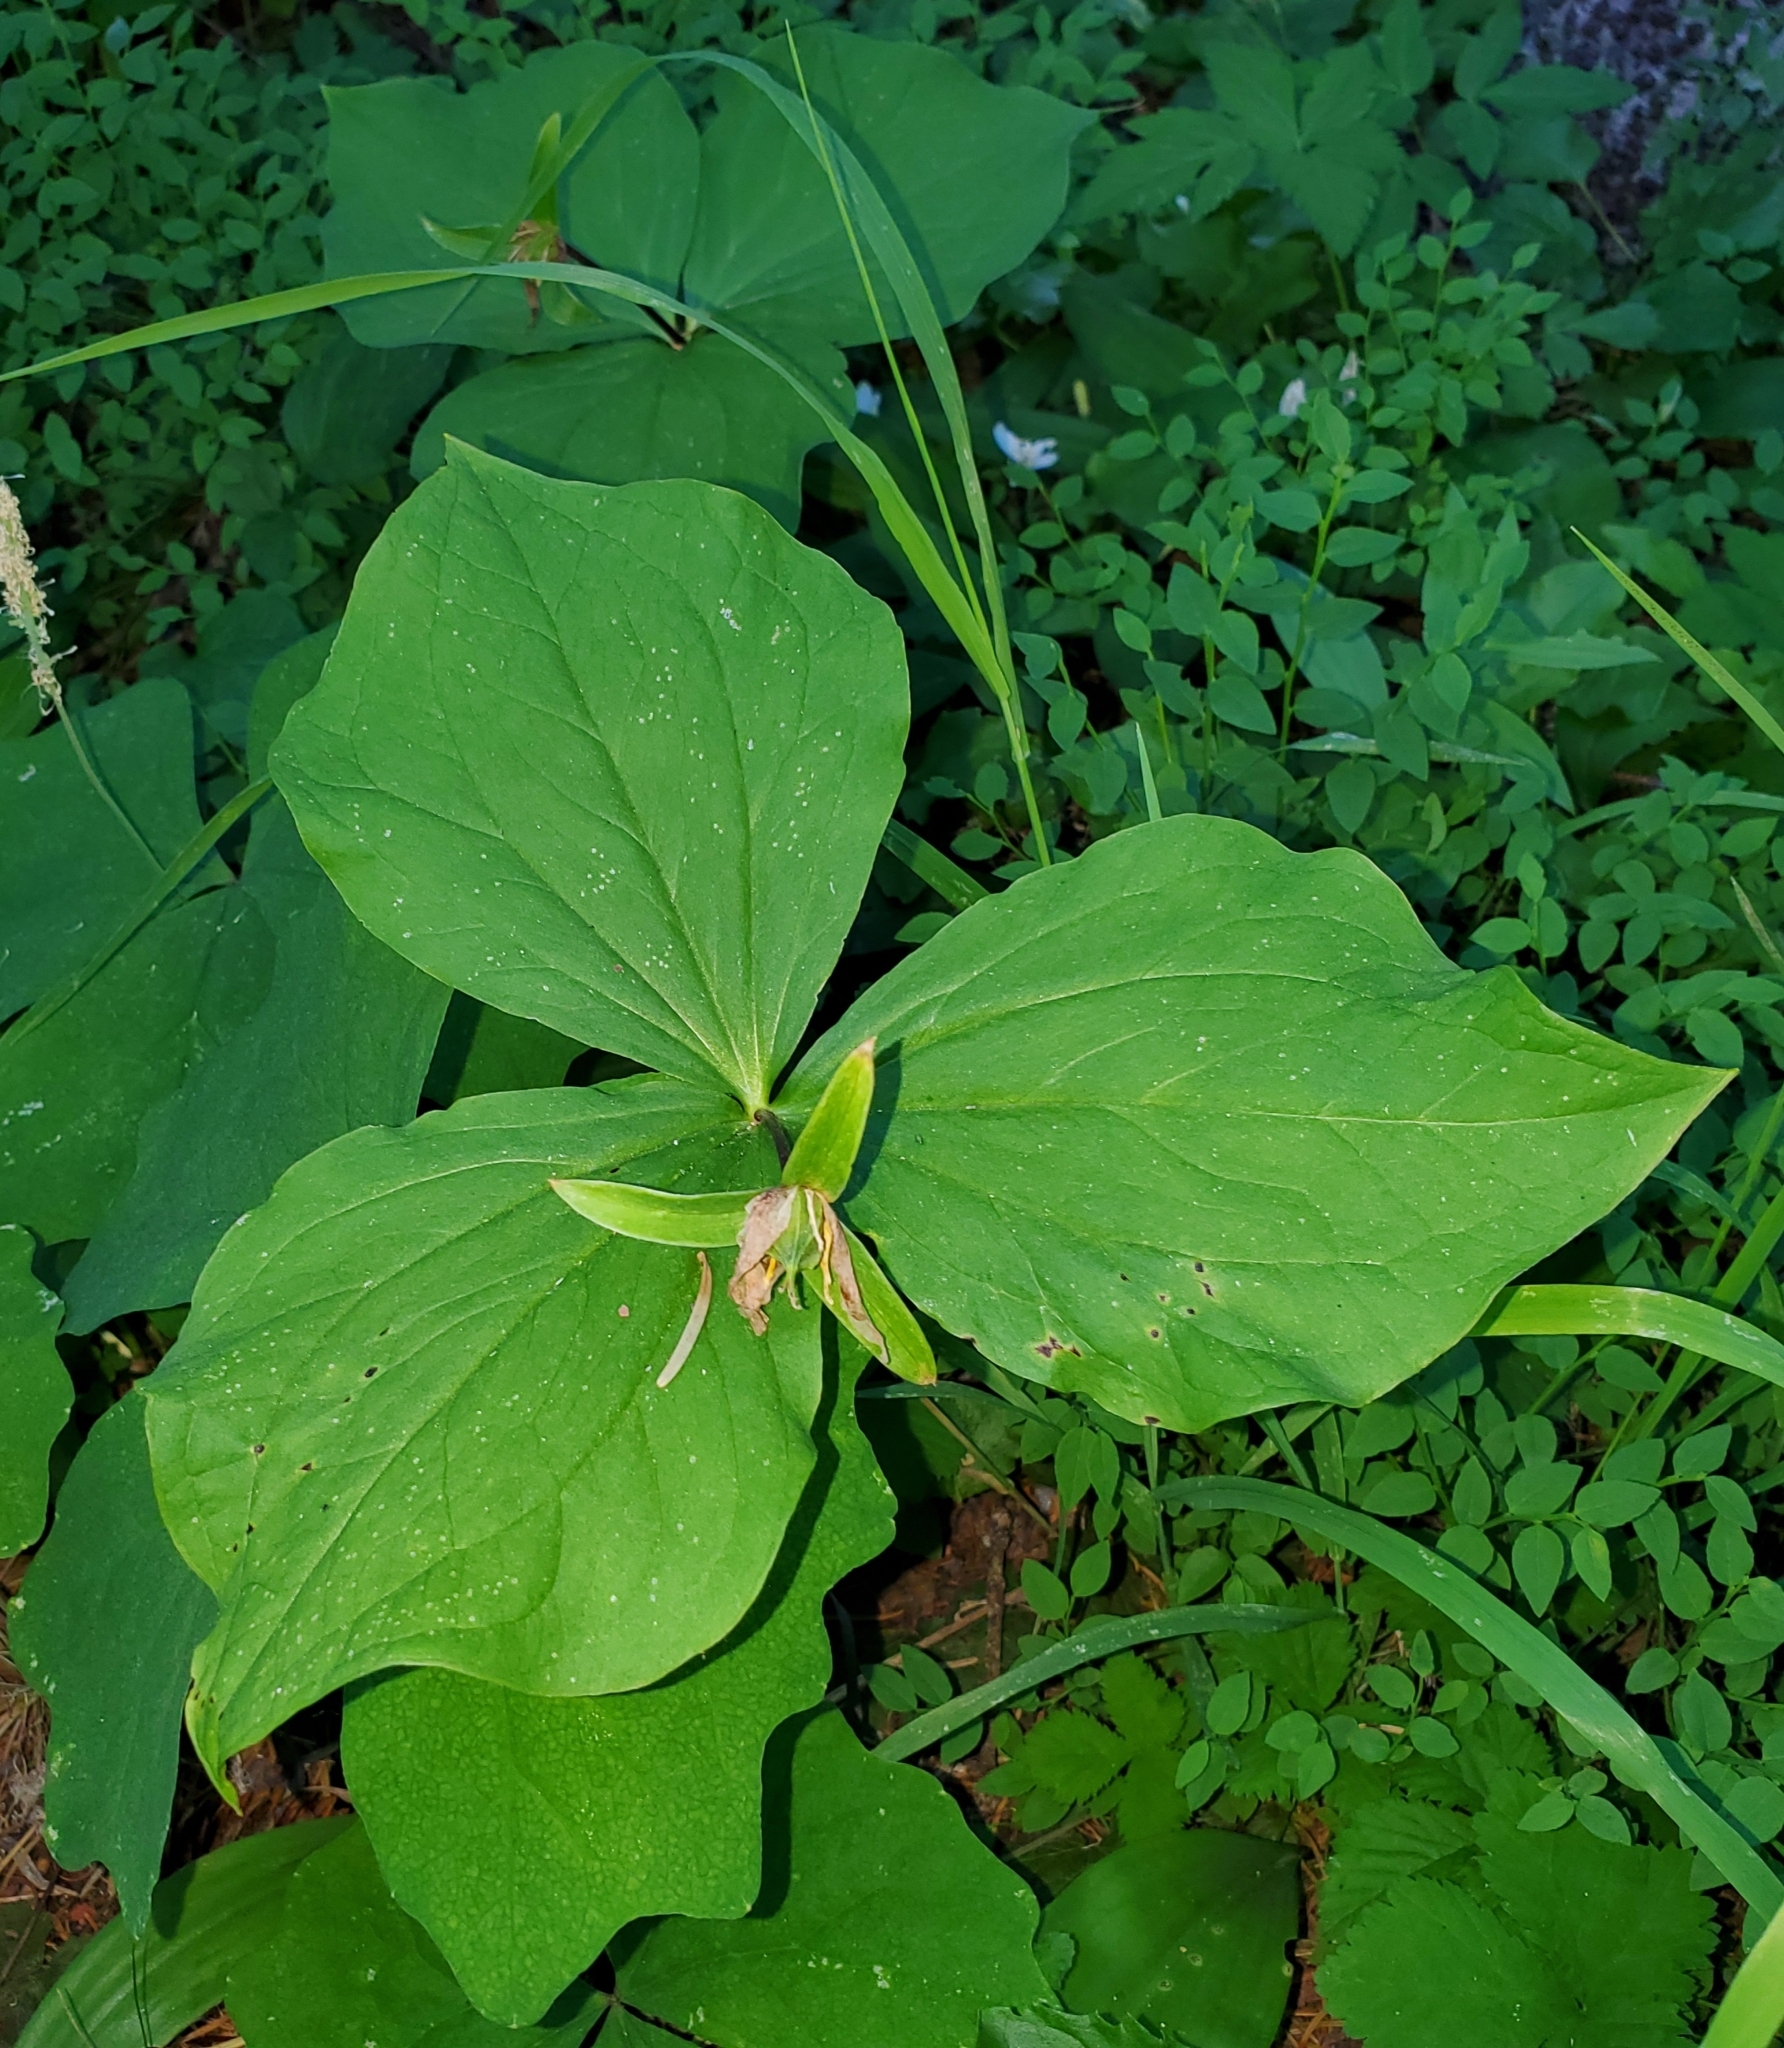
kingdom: Plantae
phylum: Tracheophyta
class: Liliopsida
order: Liliales
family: Melanthiaceae
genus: Trillium
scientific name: Trillium ovatum
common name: Pacific trillium
